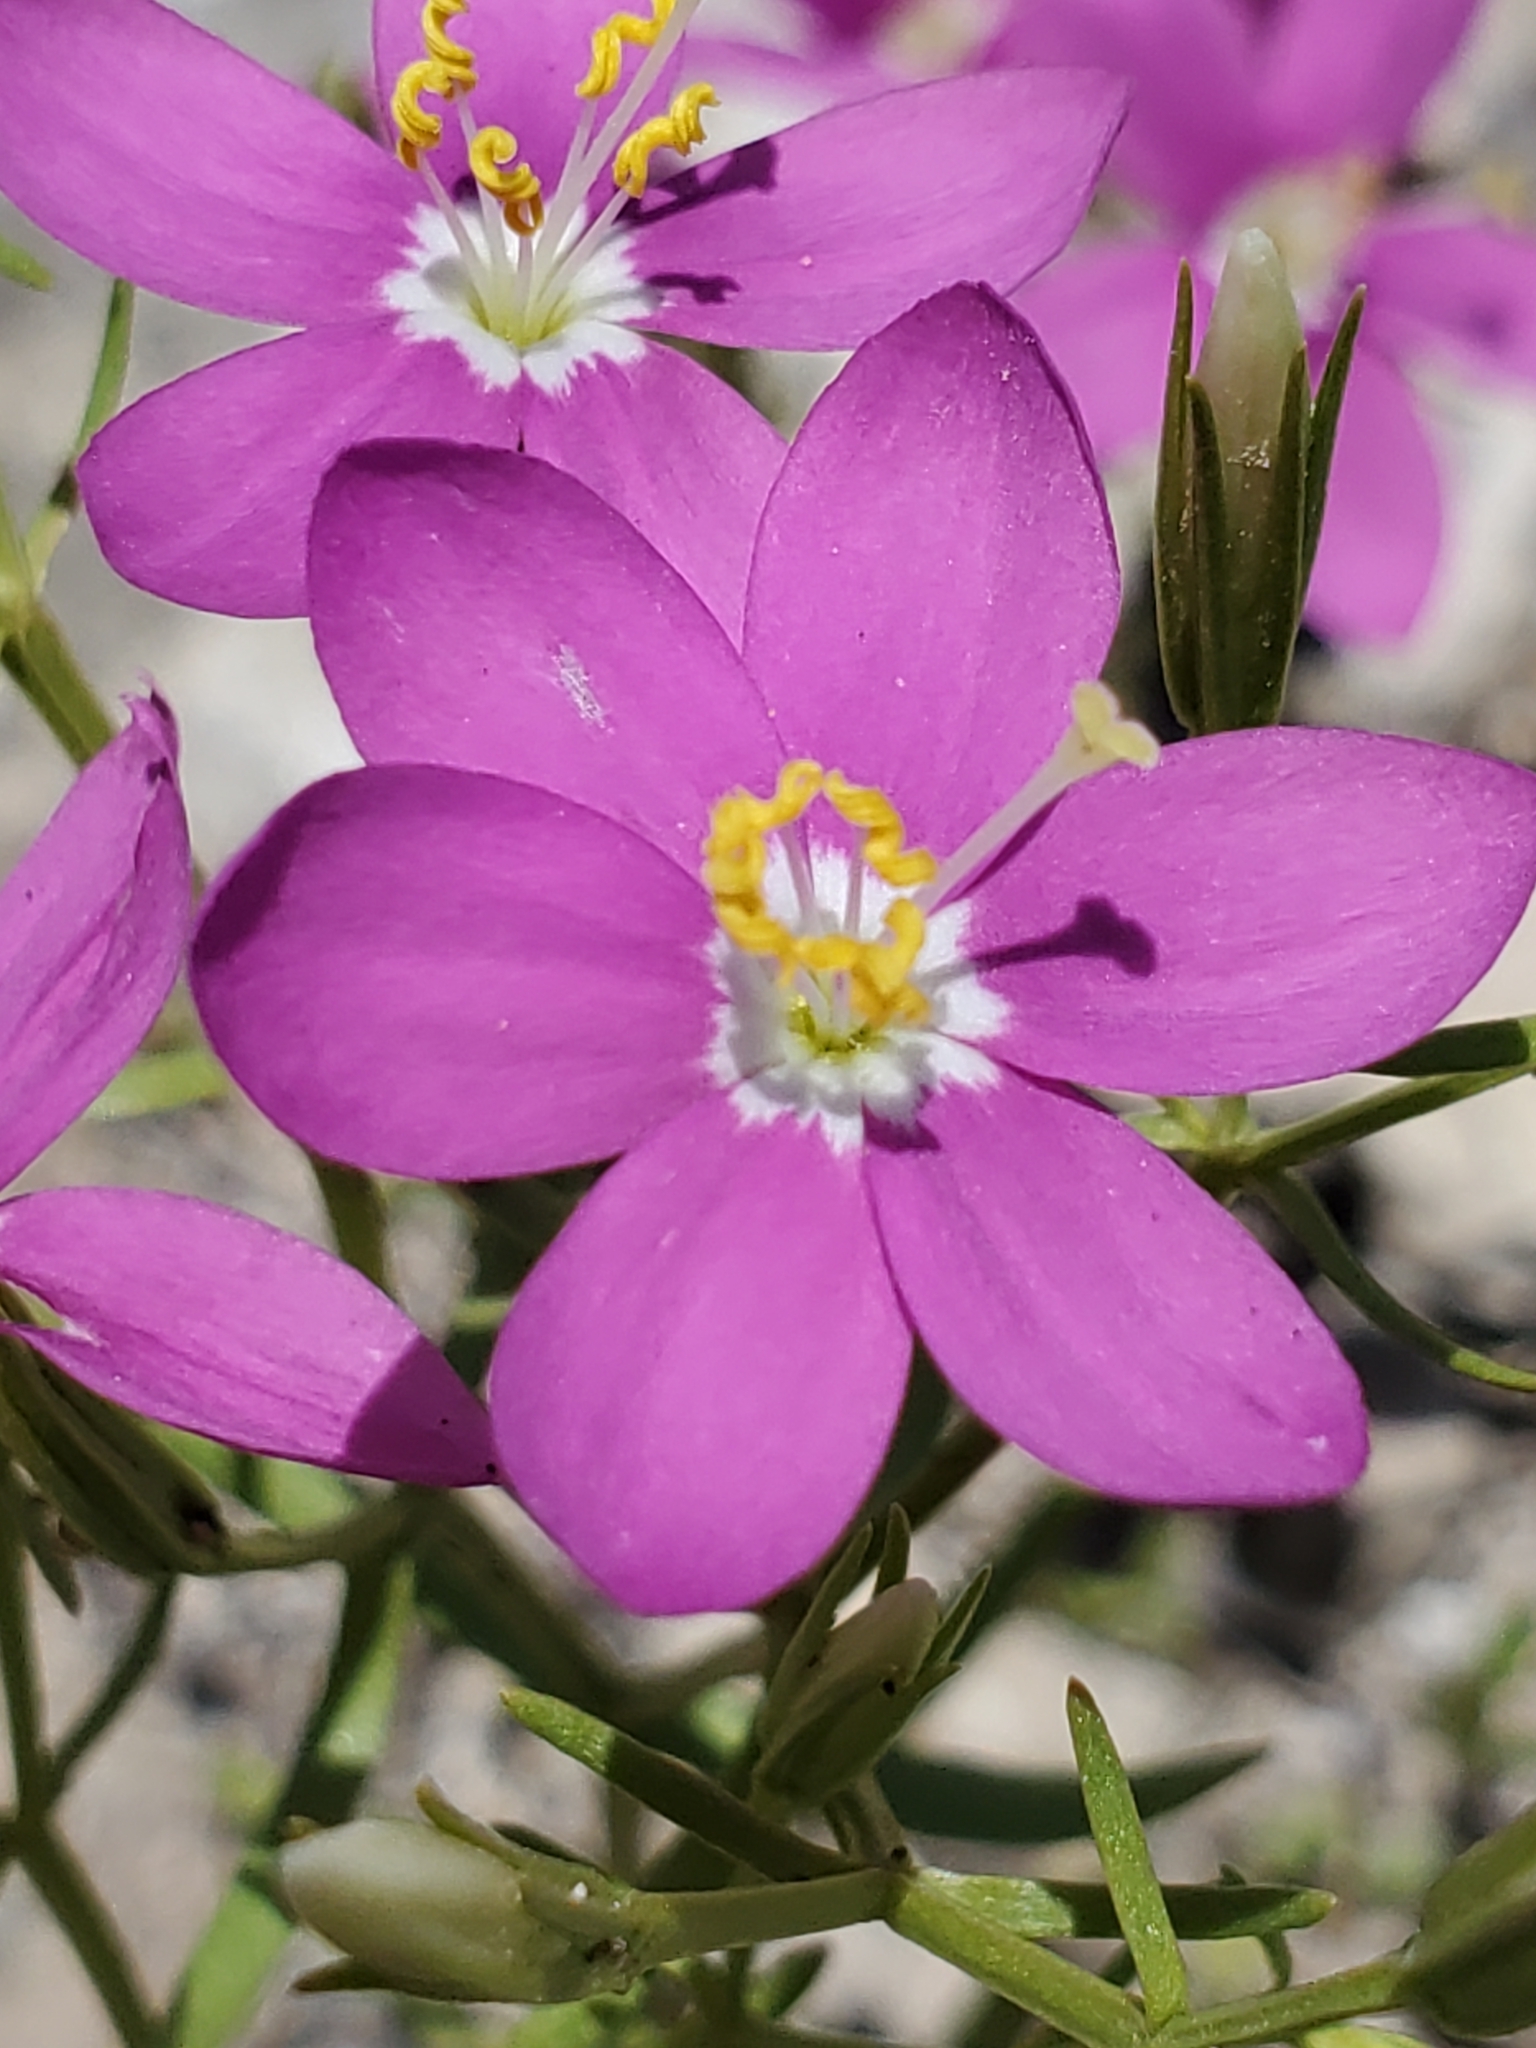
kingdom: Plantae
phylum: Tracheophyta
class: Magnoliopsida
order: Gentianales
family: Gentianaceae
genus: Zeltnera
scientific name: Zeltnera calycosa
